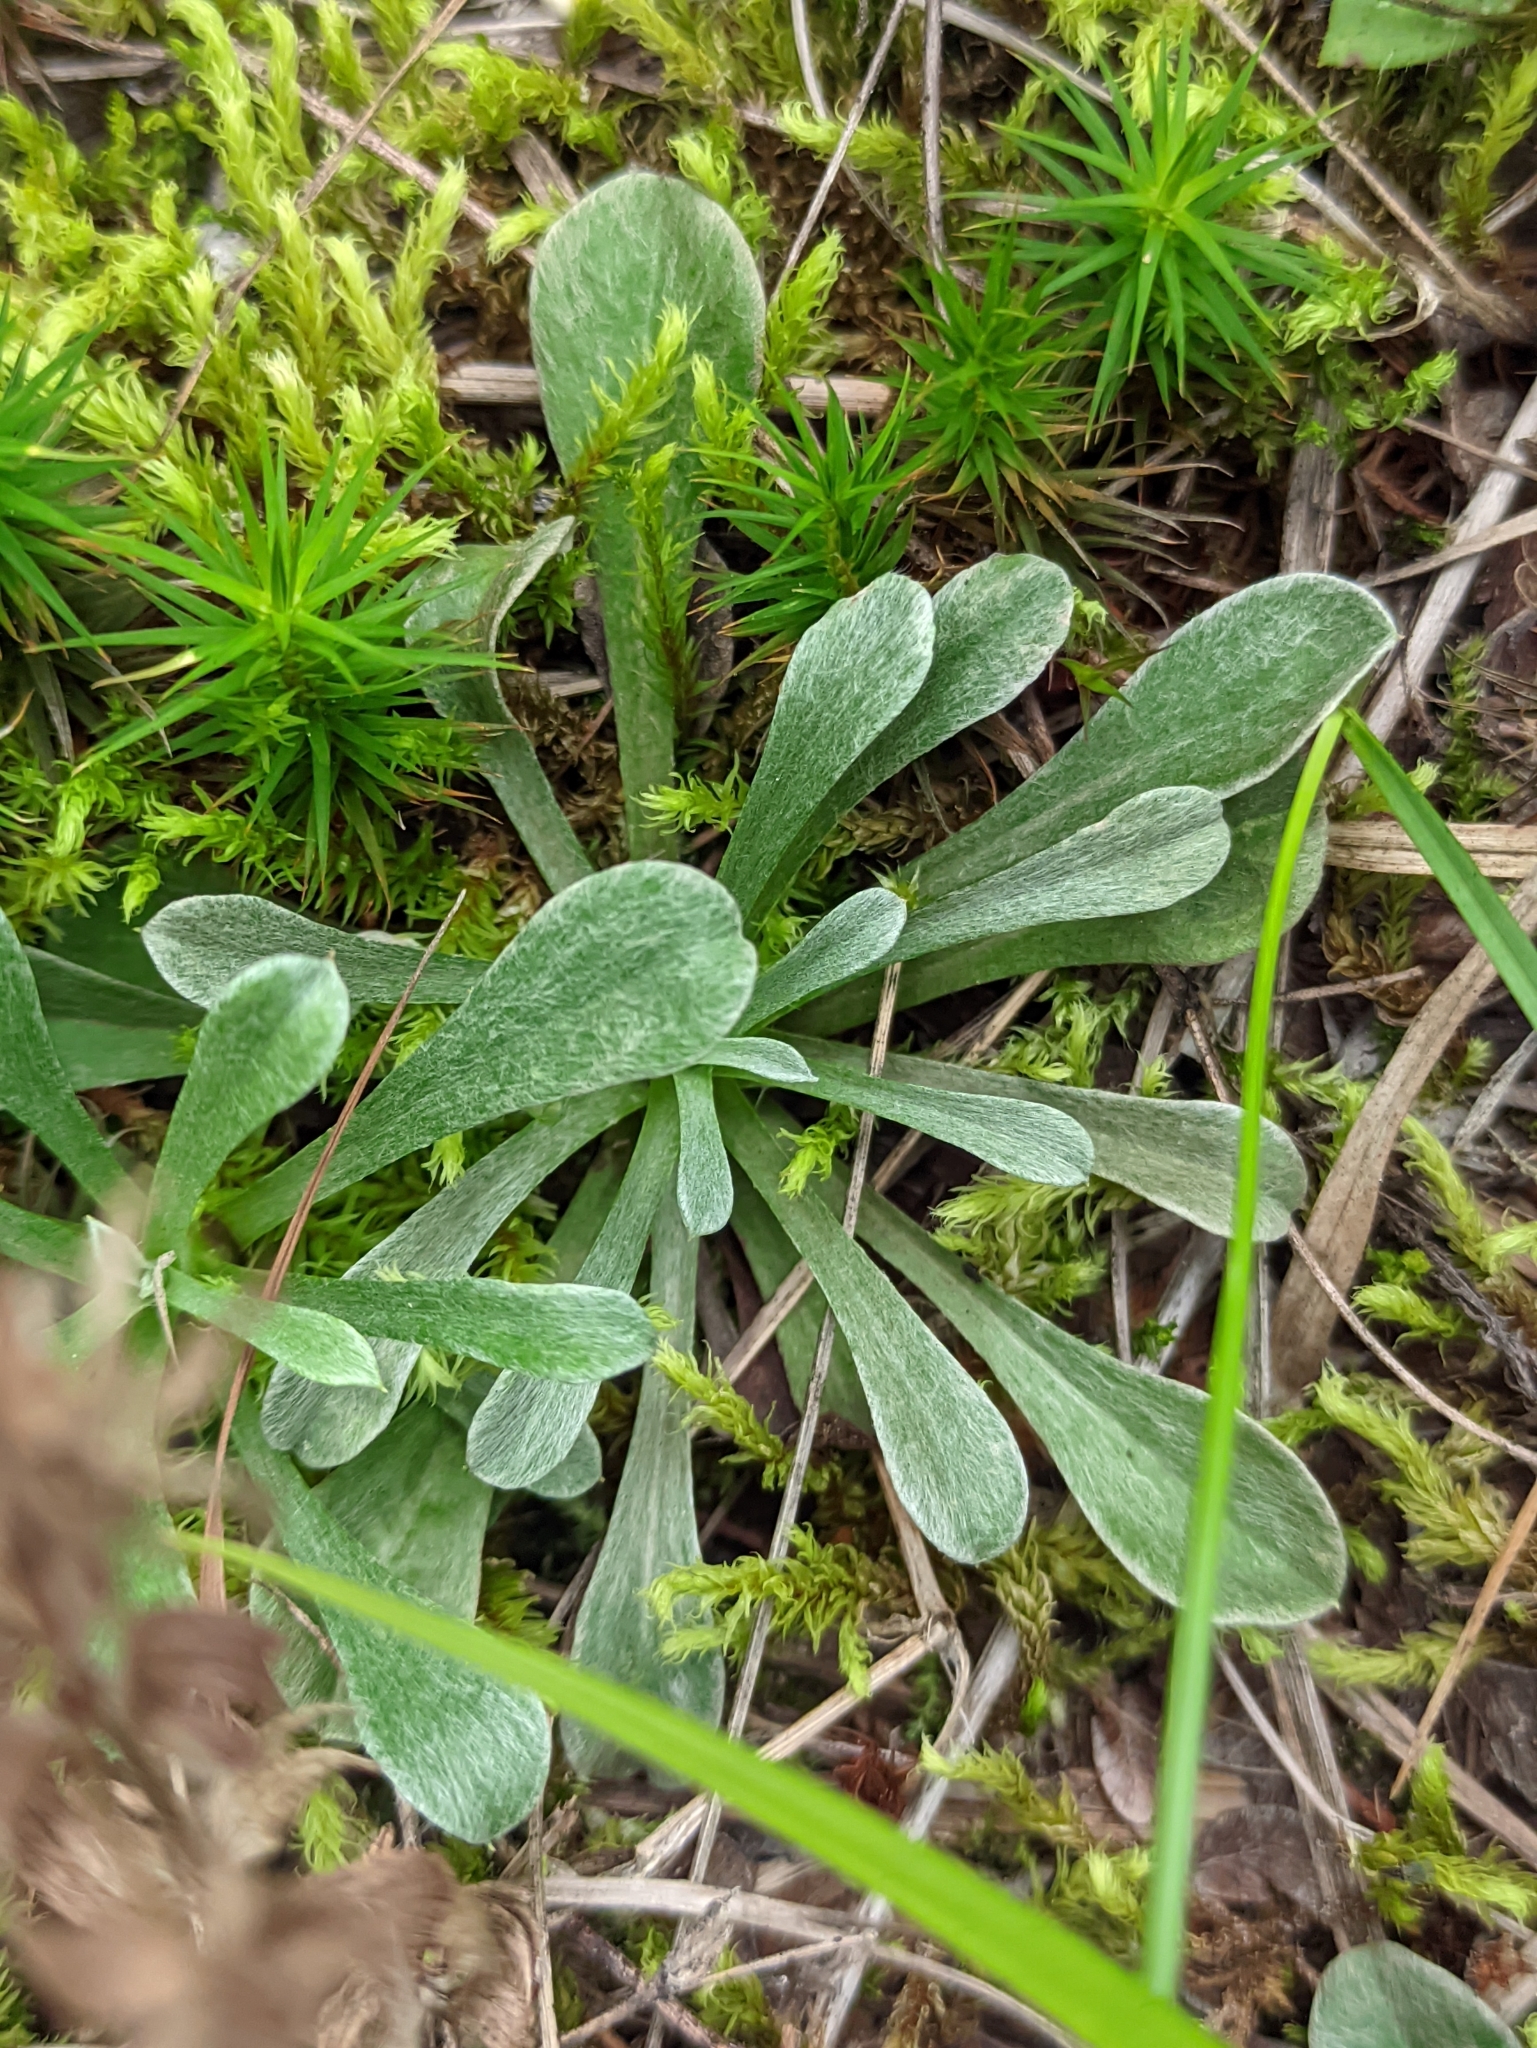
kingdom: Plantae
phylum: Tracheophyta
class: Magnoliopsida
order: Asterales
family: Asteraceae
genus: Antennaria
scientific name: Antennaria dioica
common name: Mountain everlasting
